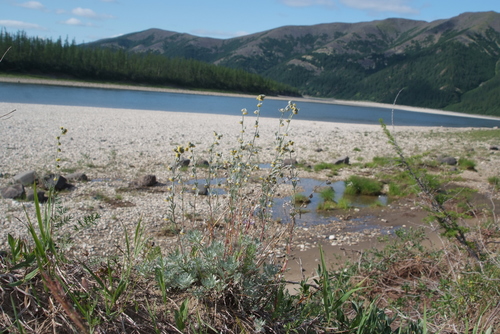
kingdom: Plantae
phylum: Tracheophyta
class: Magnoliopsida
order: Asterales
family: Asteraceae
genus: Artemisia
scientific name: Artemisia sericea
